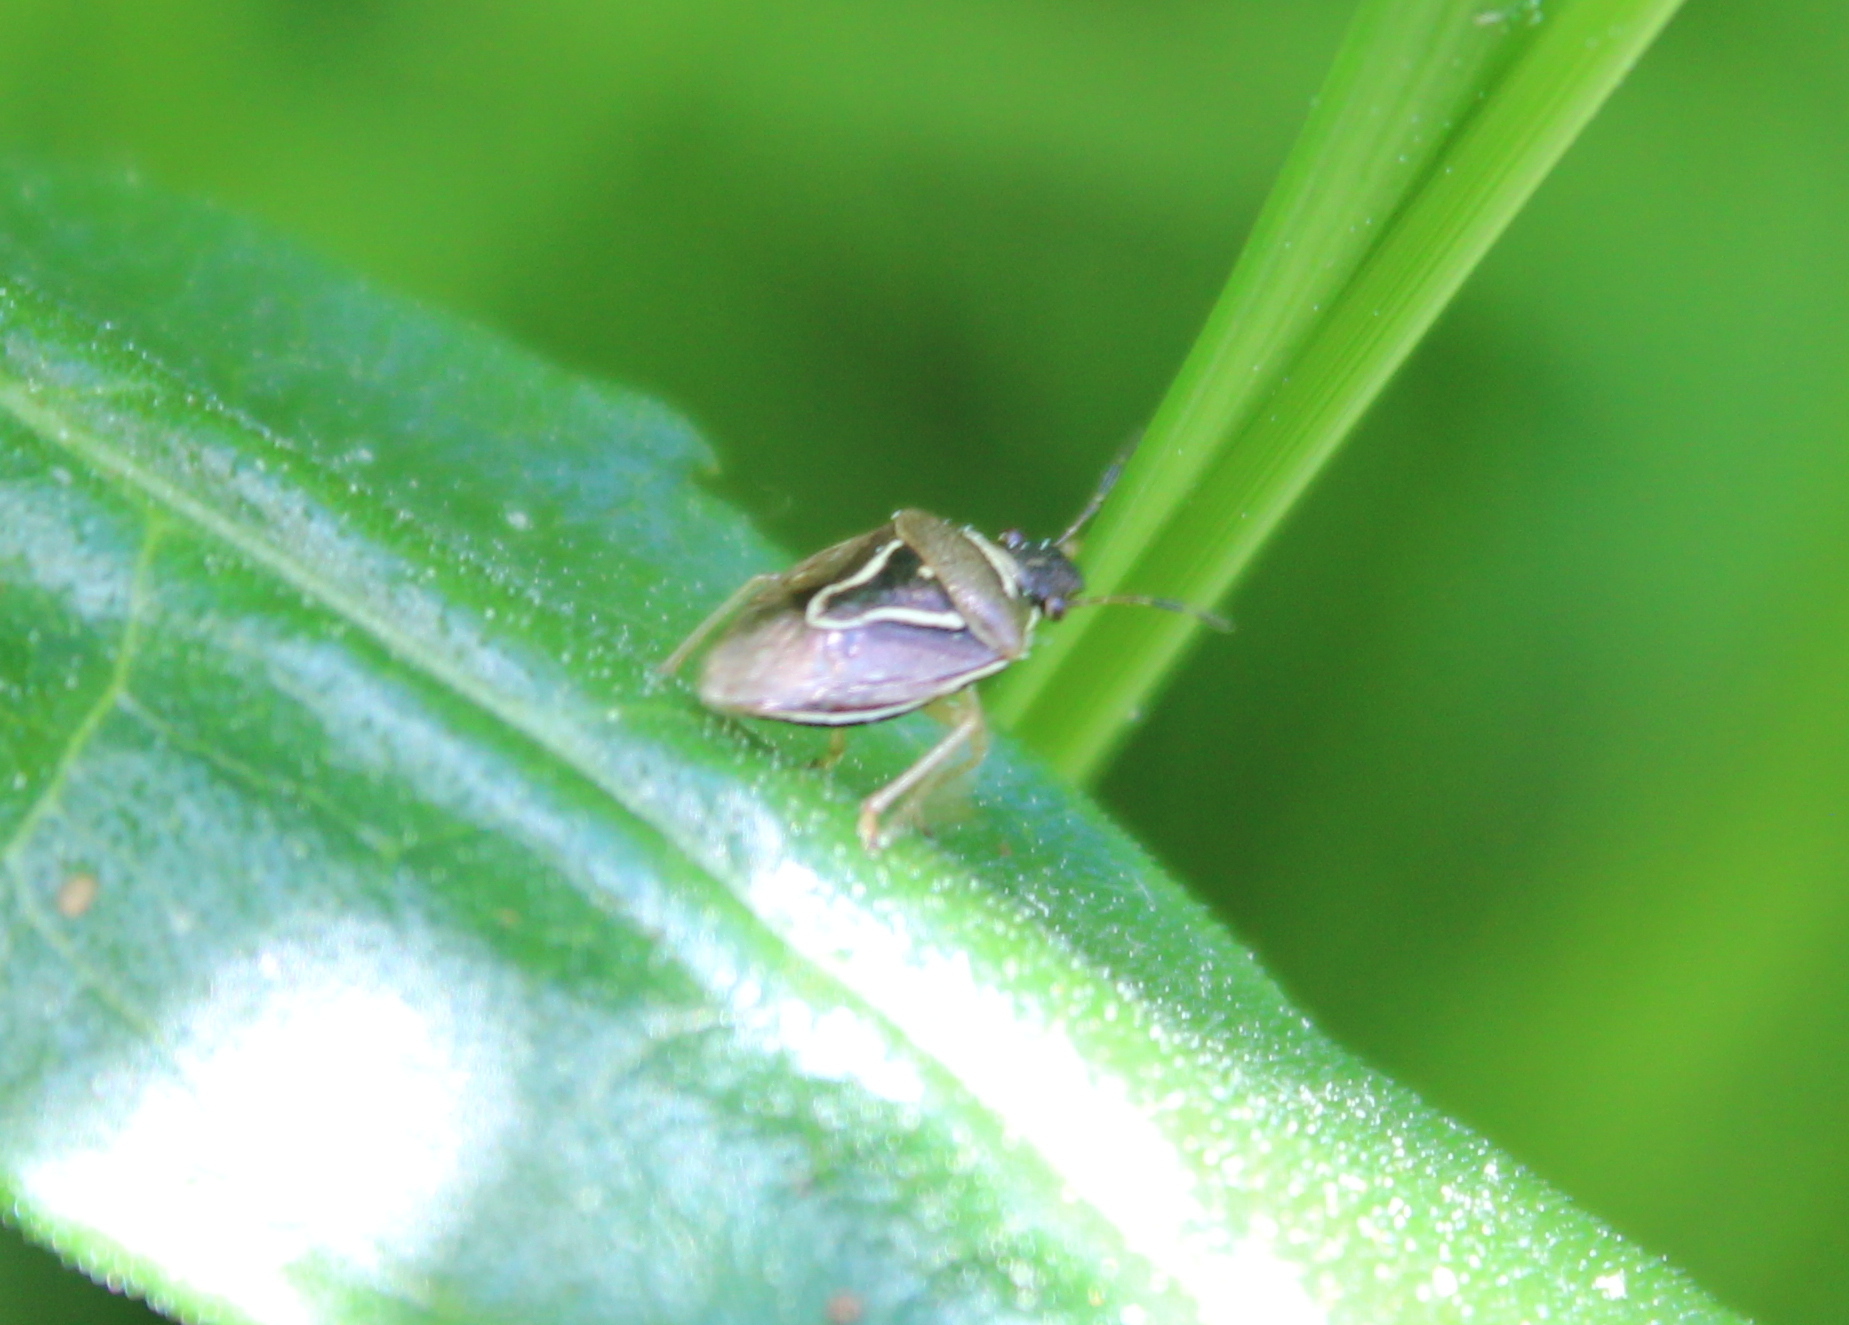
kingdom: Animalia
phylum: Arthropoda
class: Insecta
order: Hemiptera
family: Pentatomidae
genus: Mormidea
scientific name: Mormidea lugens
